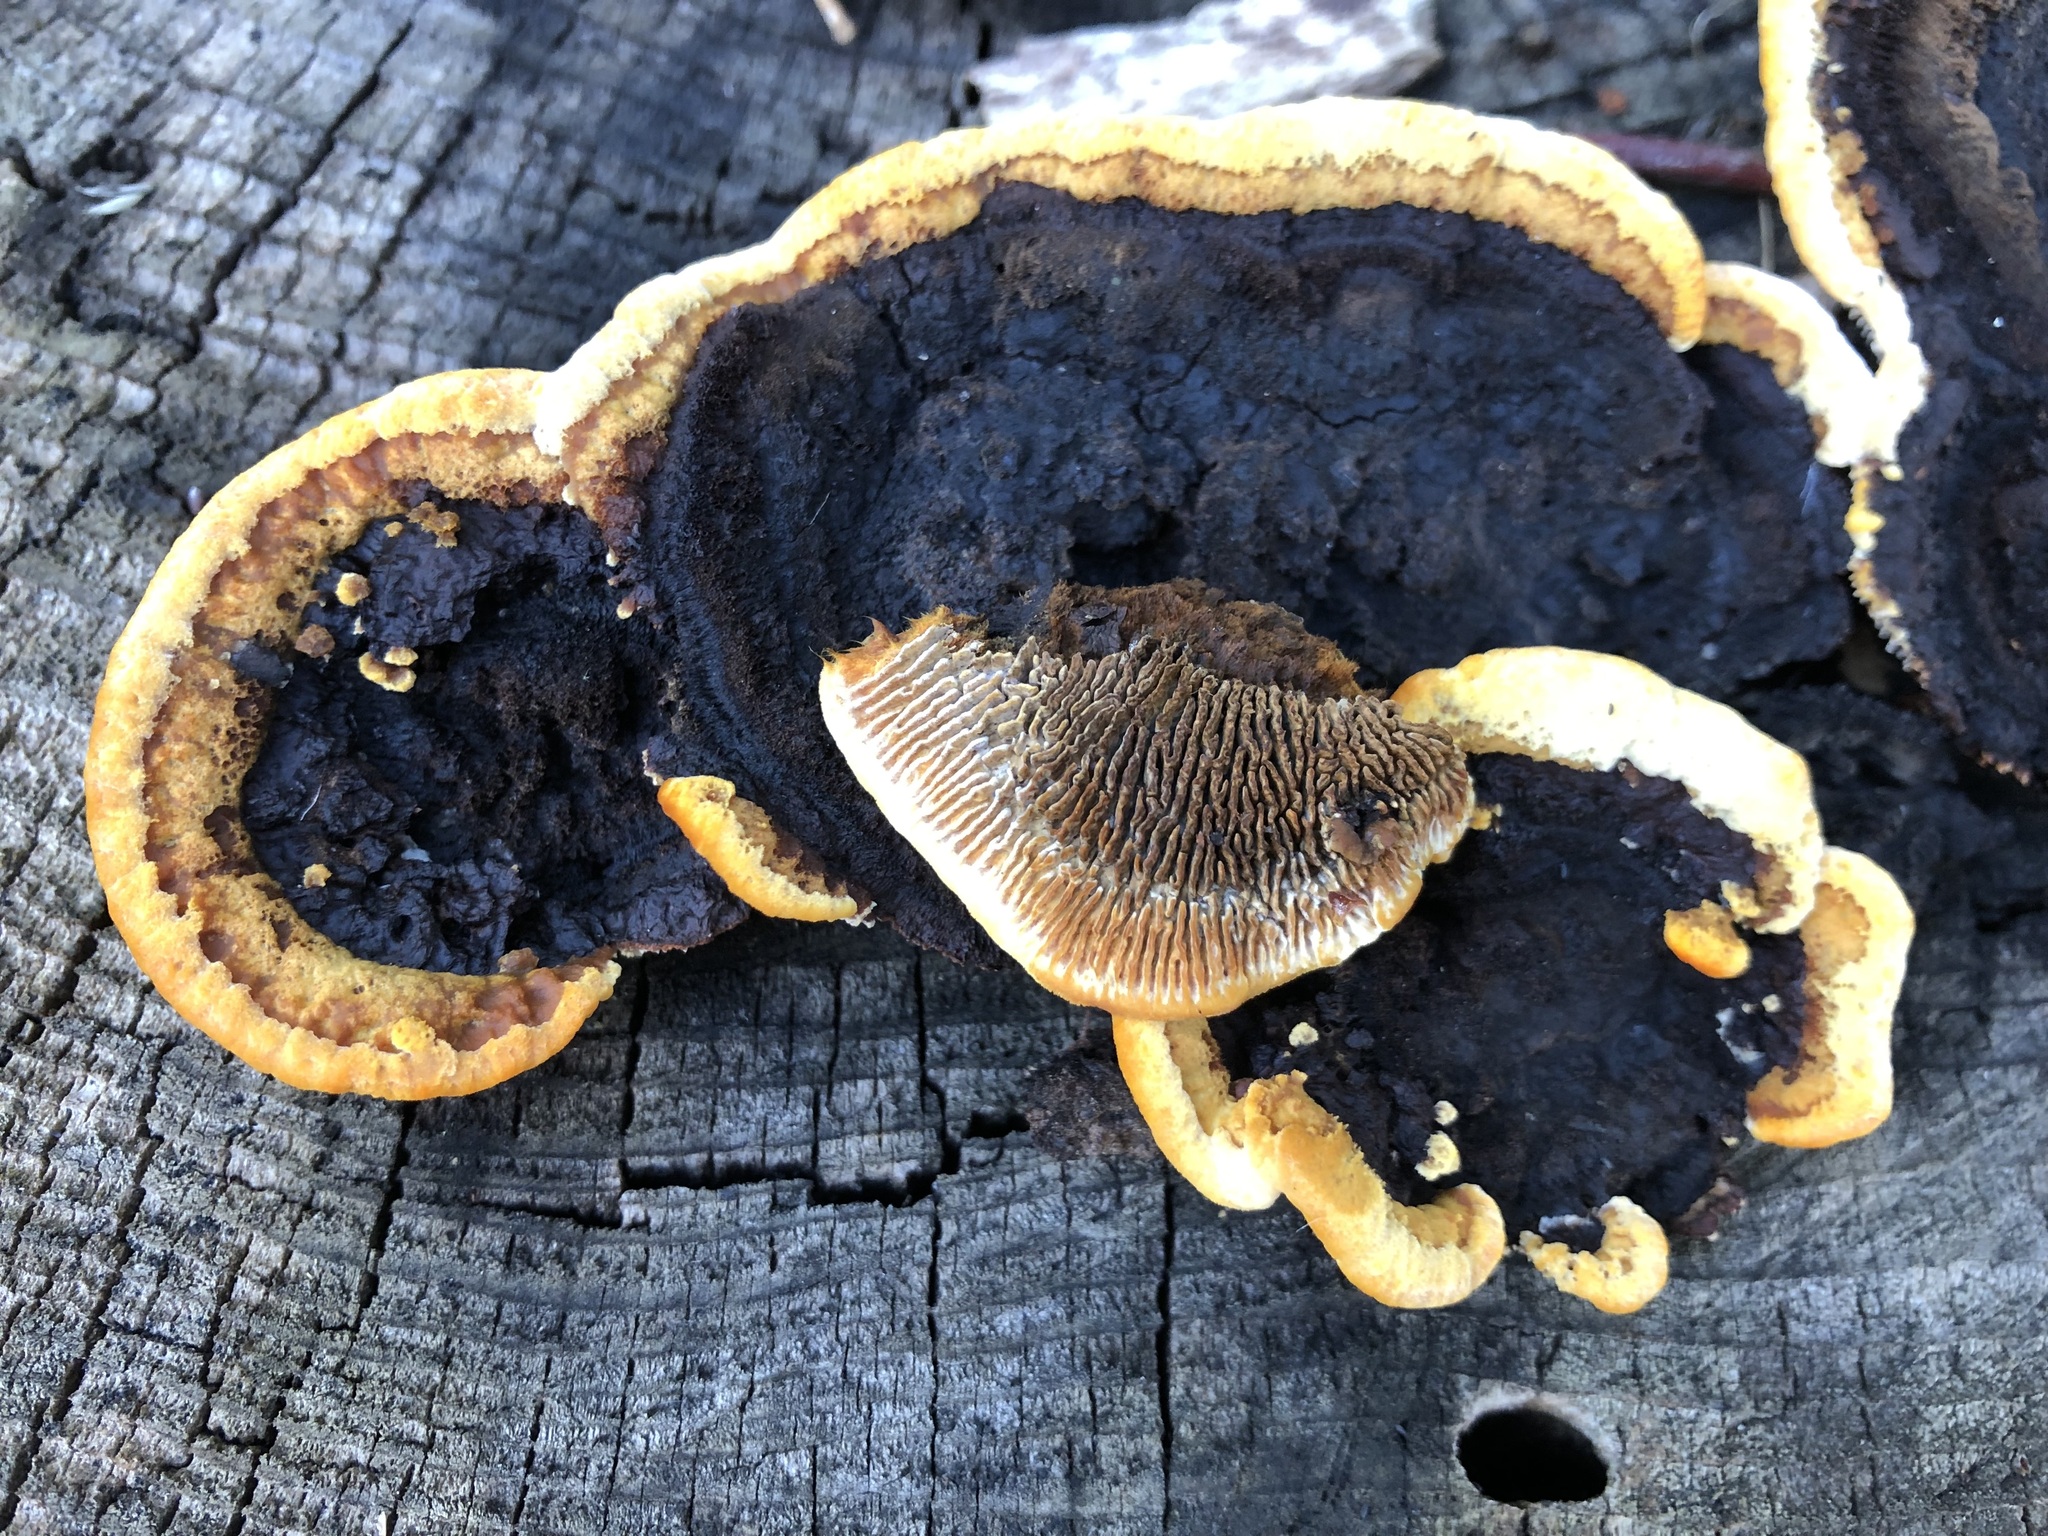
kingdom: Fungi
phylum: Basidiomycota
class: Agaricomycetes
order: Gloeophyllales
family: Gloeophyllaceae
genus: Gloeophyllum
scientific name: Gloeophyllum sepiarium
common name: Conifer mazegill
